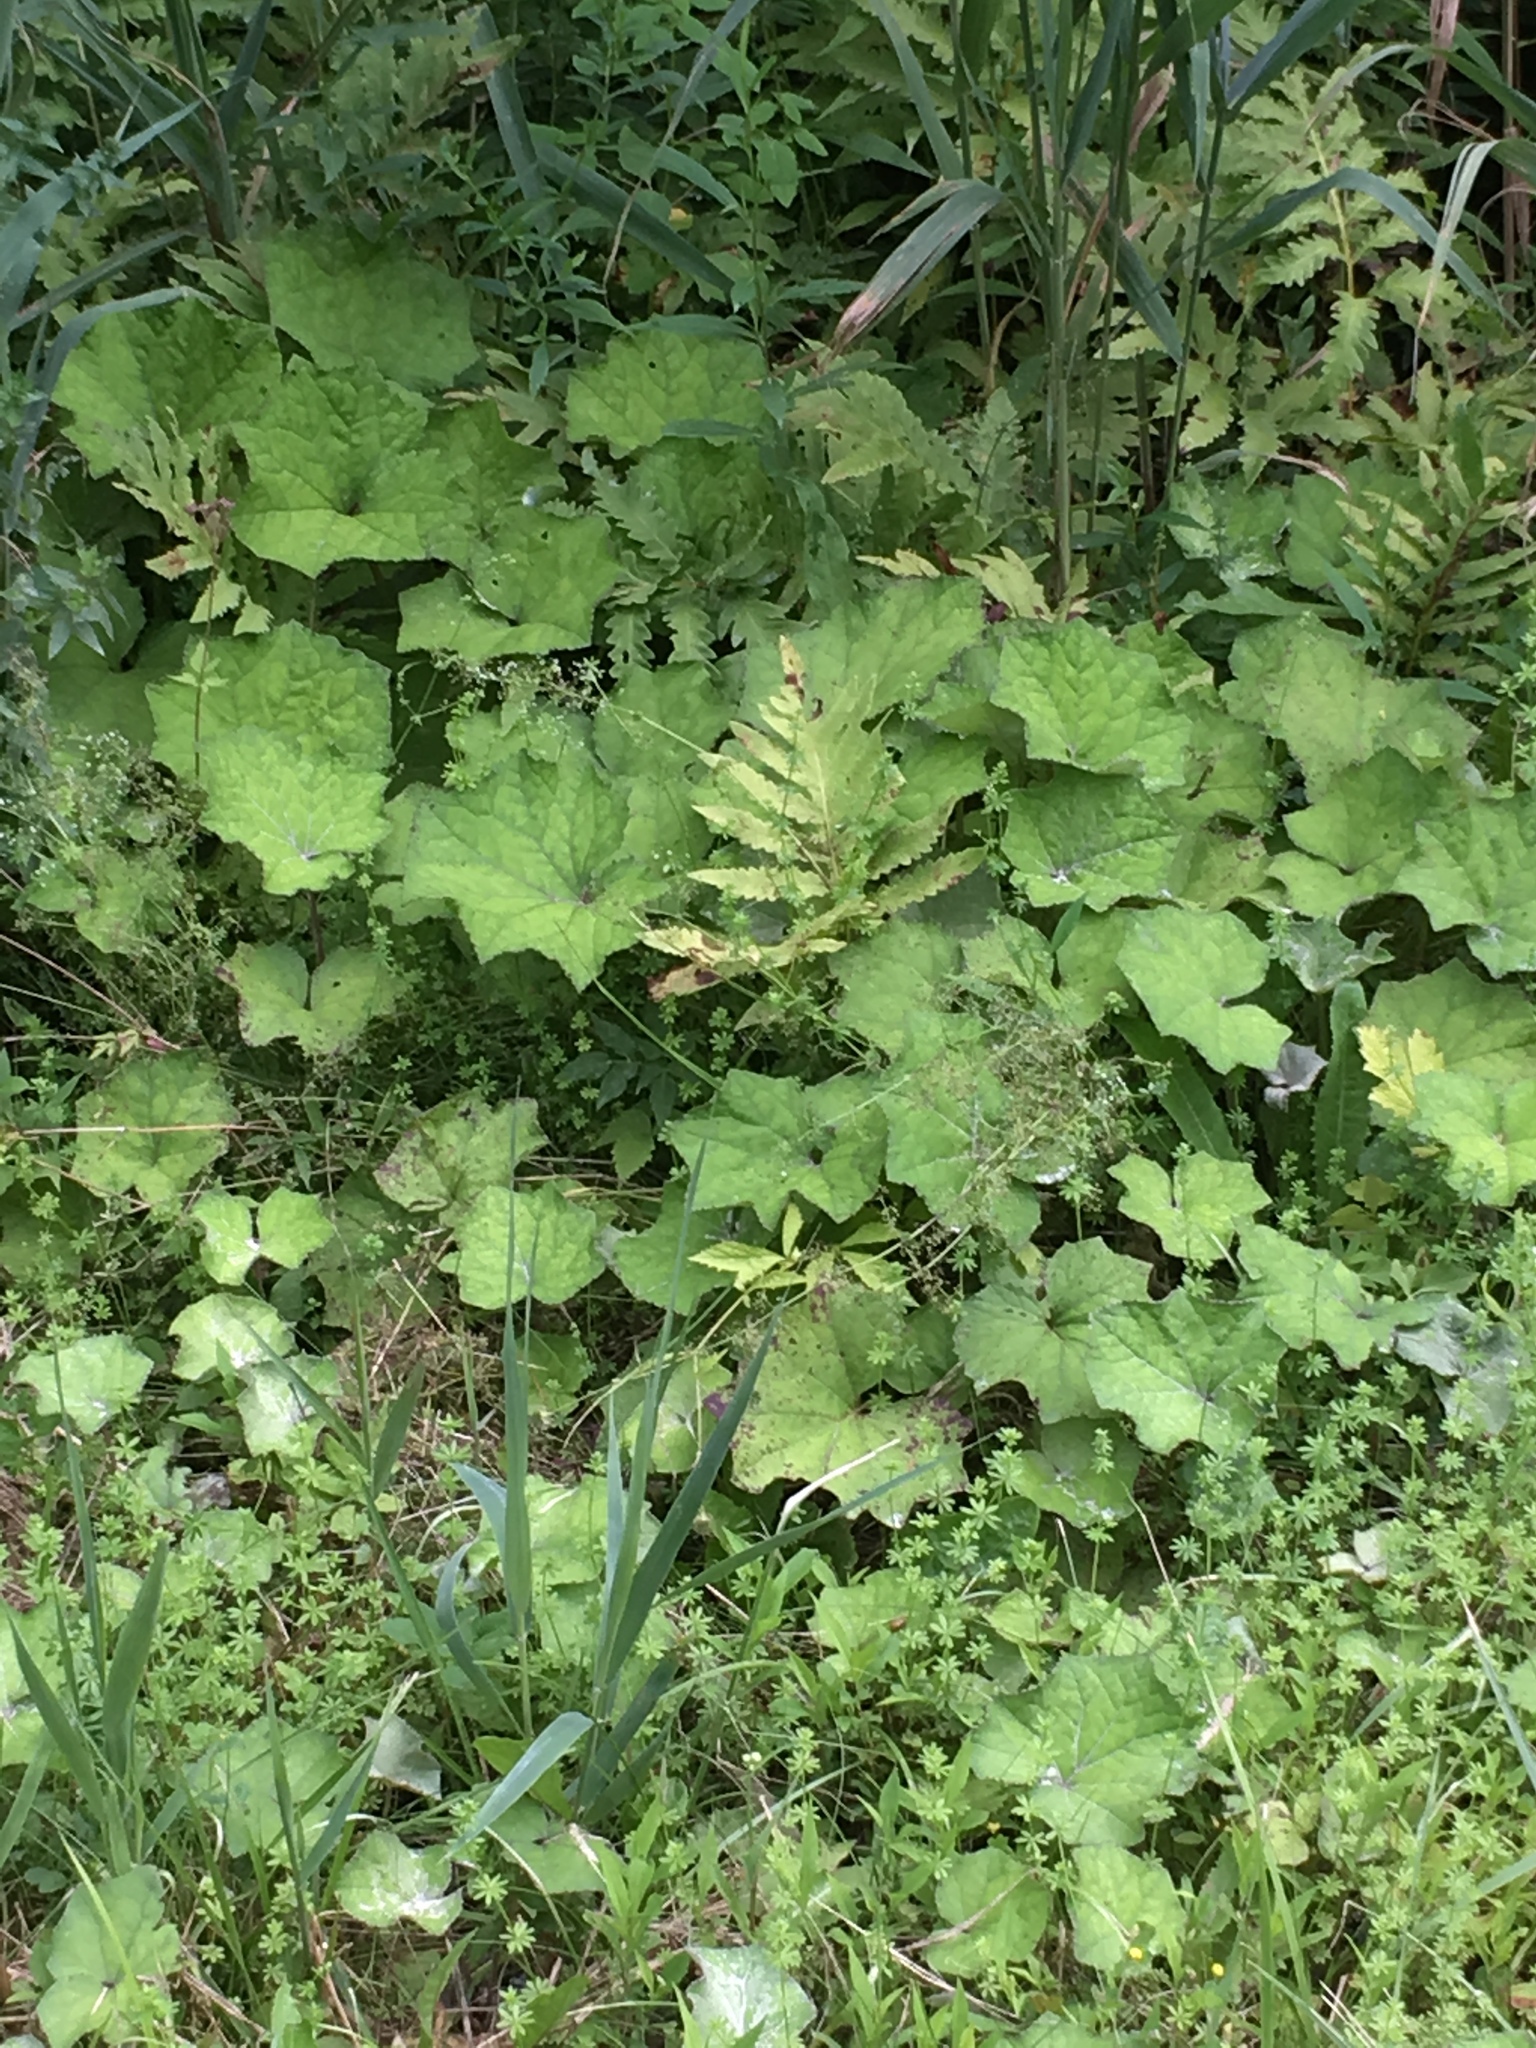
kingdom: Plantae
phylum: Tracheophyta
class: Magnoliopsida
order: Asterales
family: Asteraceae
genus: Tussilago
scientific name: Tussilago farfara
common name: Coltsfoot
